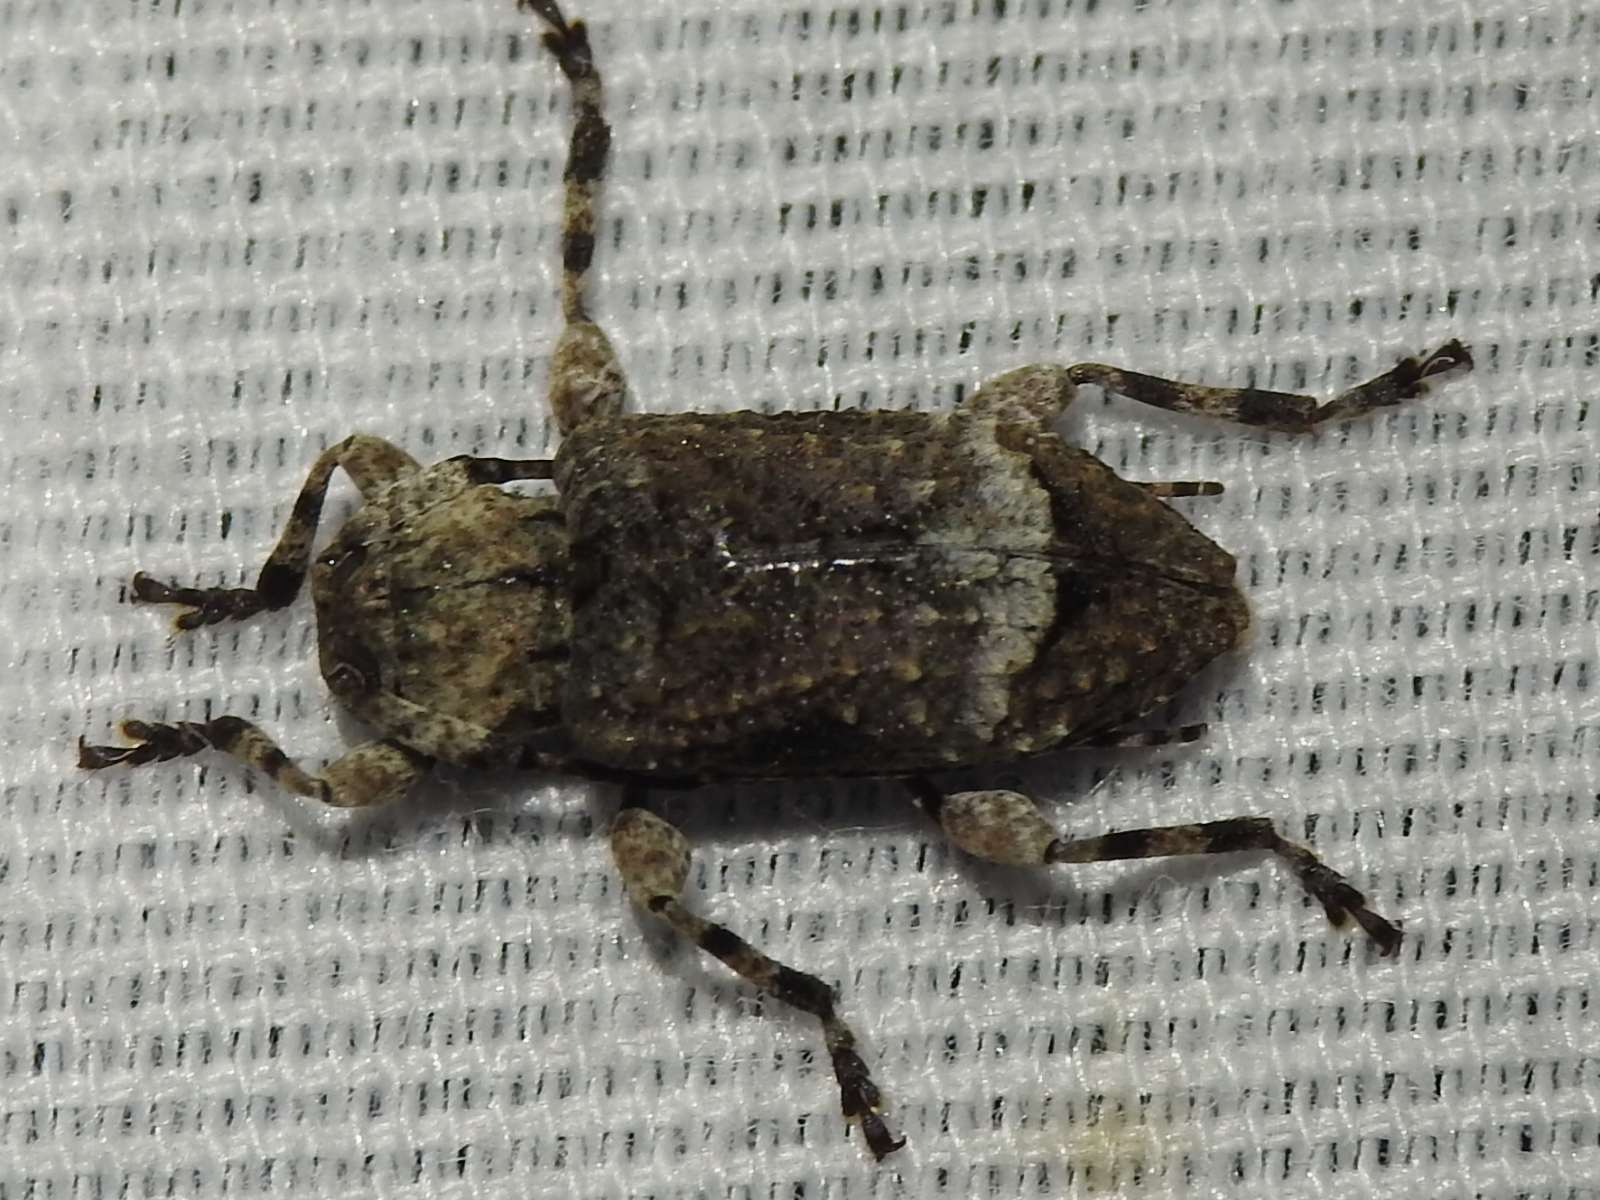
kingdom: Animalia
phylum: Arthropoda
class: Insecta
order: Coleoptera
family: Cerambycidae
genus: Leptostylus
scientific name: Leptostylus transversus
